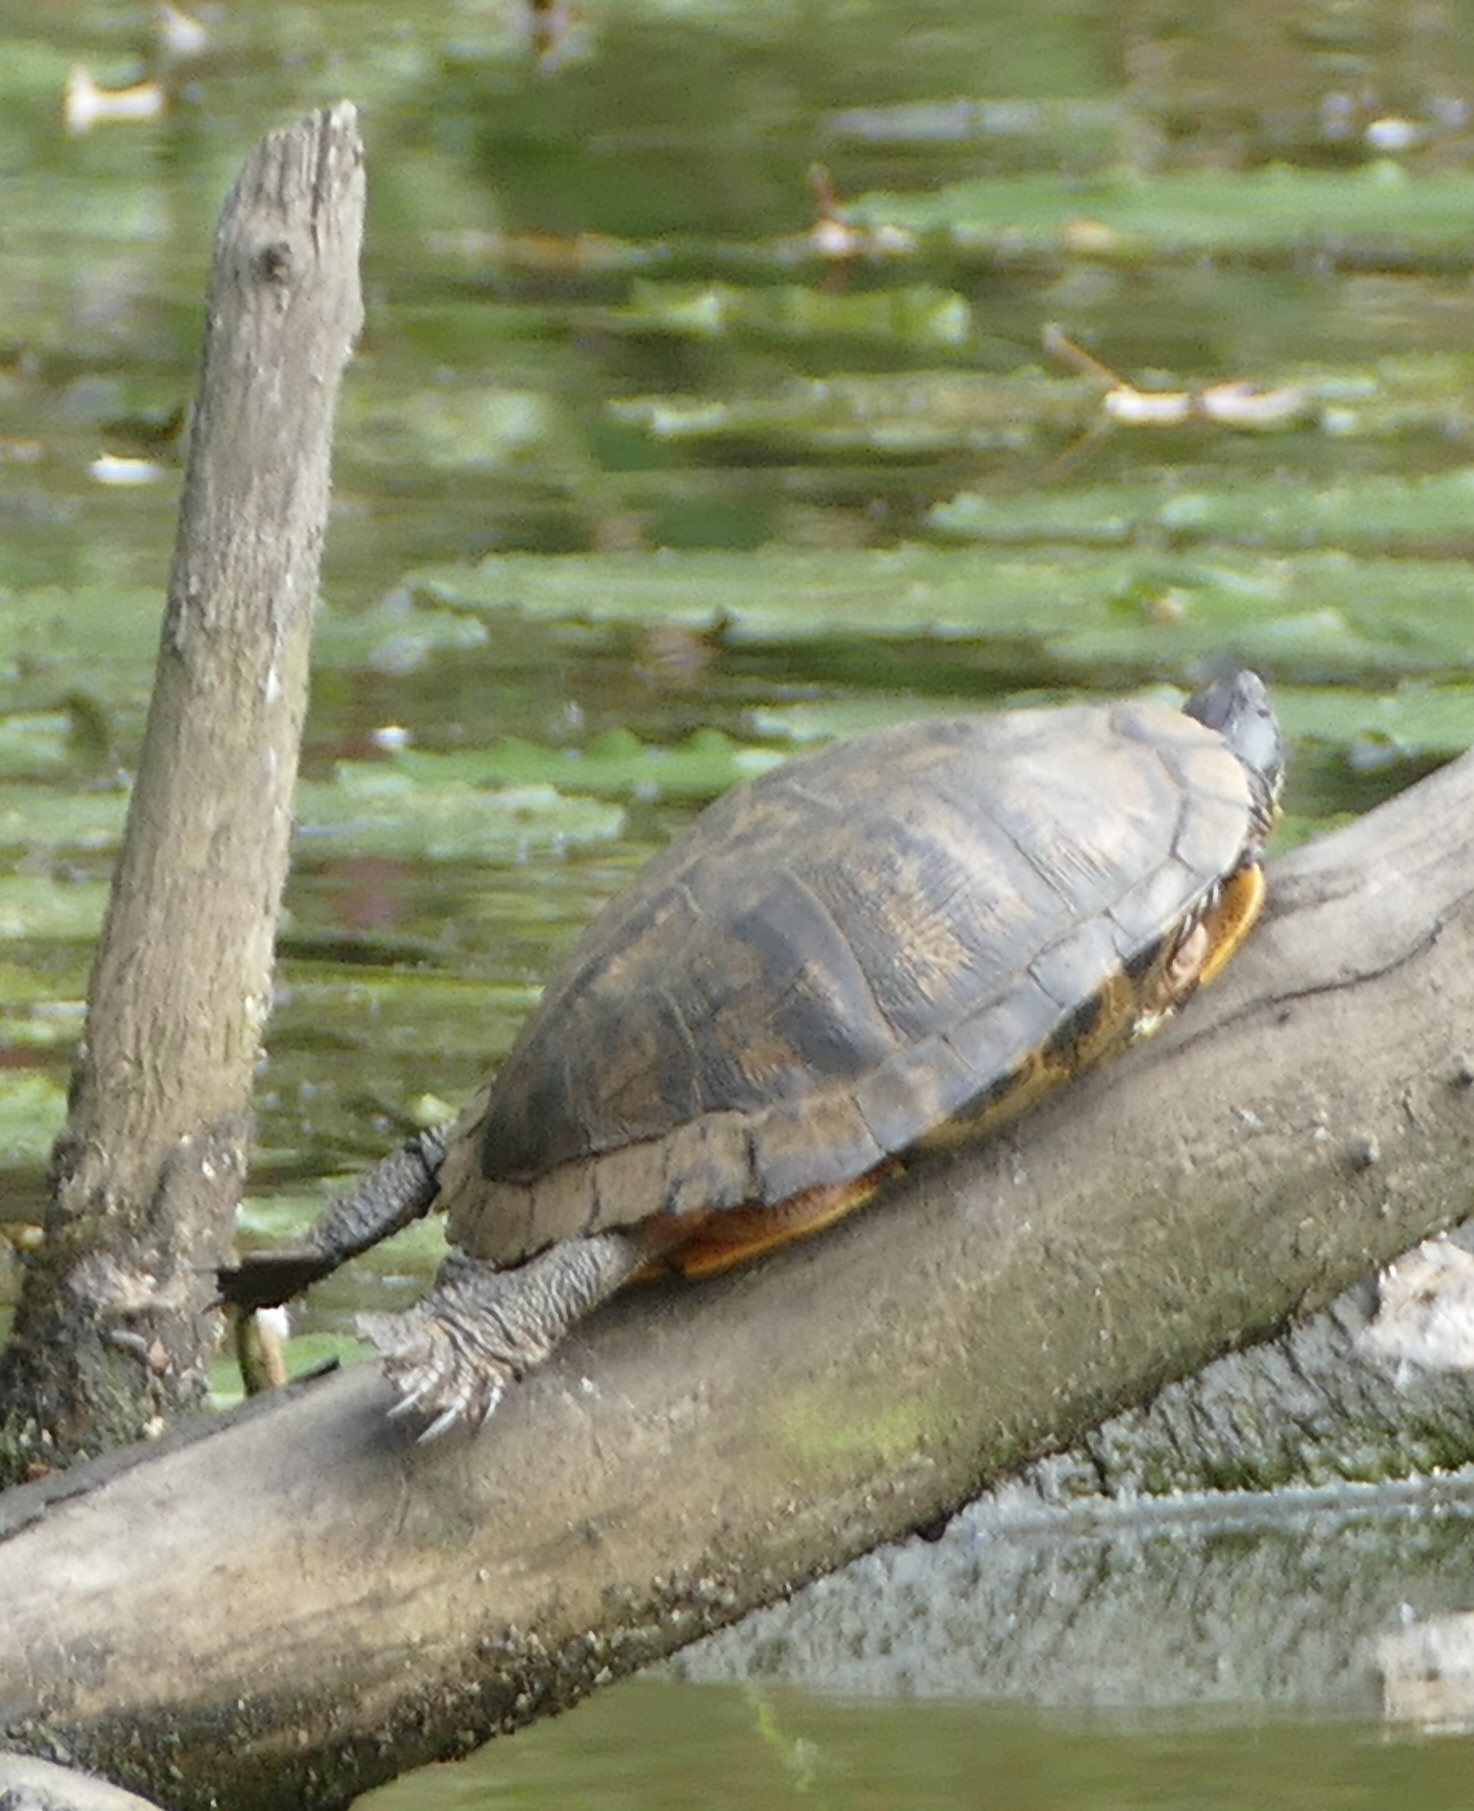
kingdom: Animalia
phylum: Chordata
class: Testudines
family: Emydidae
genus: Trachemys
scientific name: Trachemys scripta
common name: Slider
